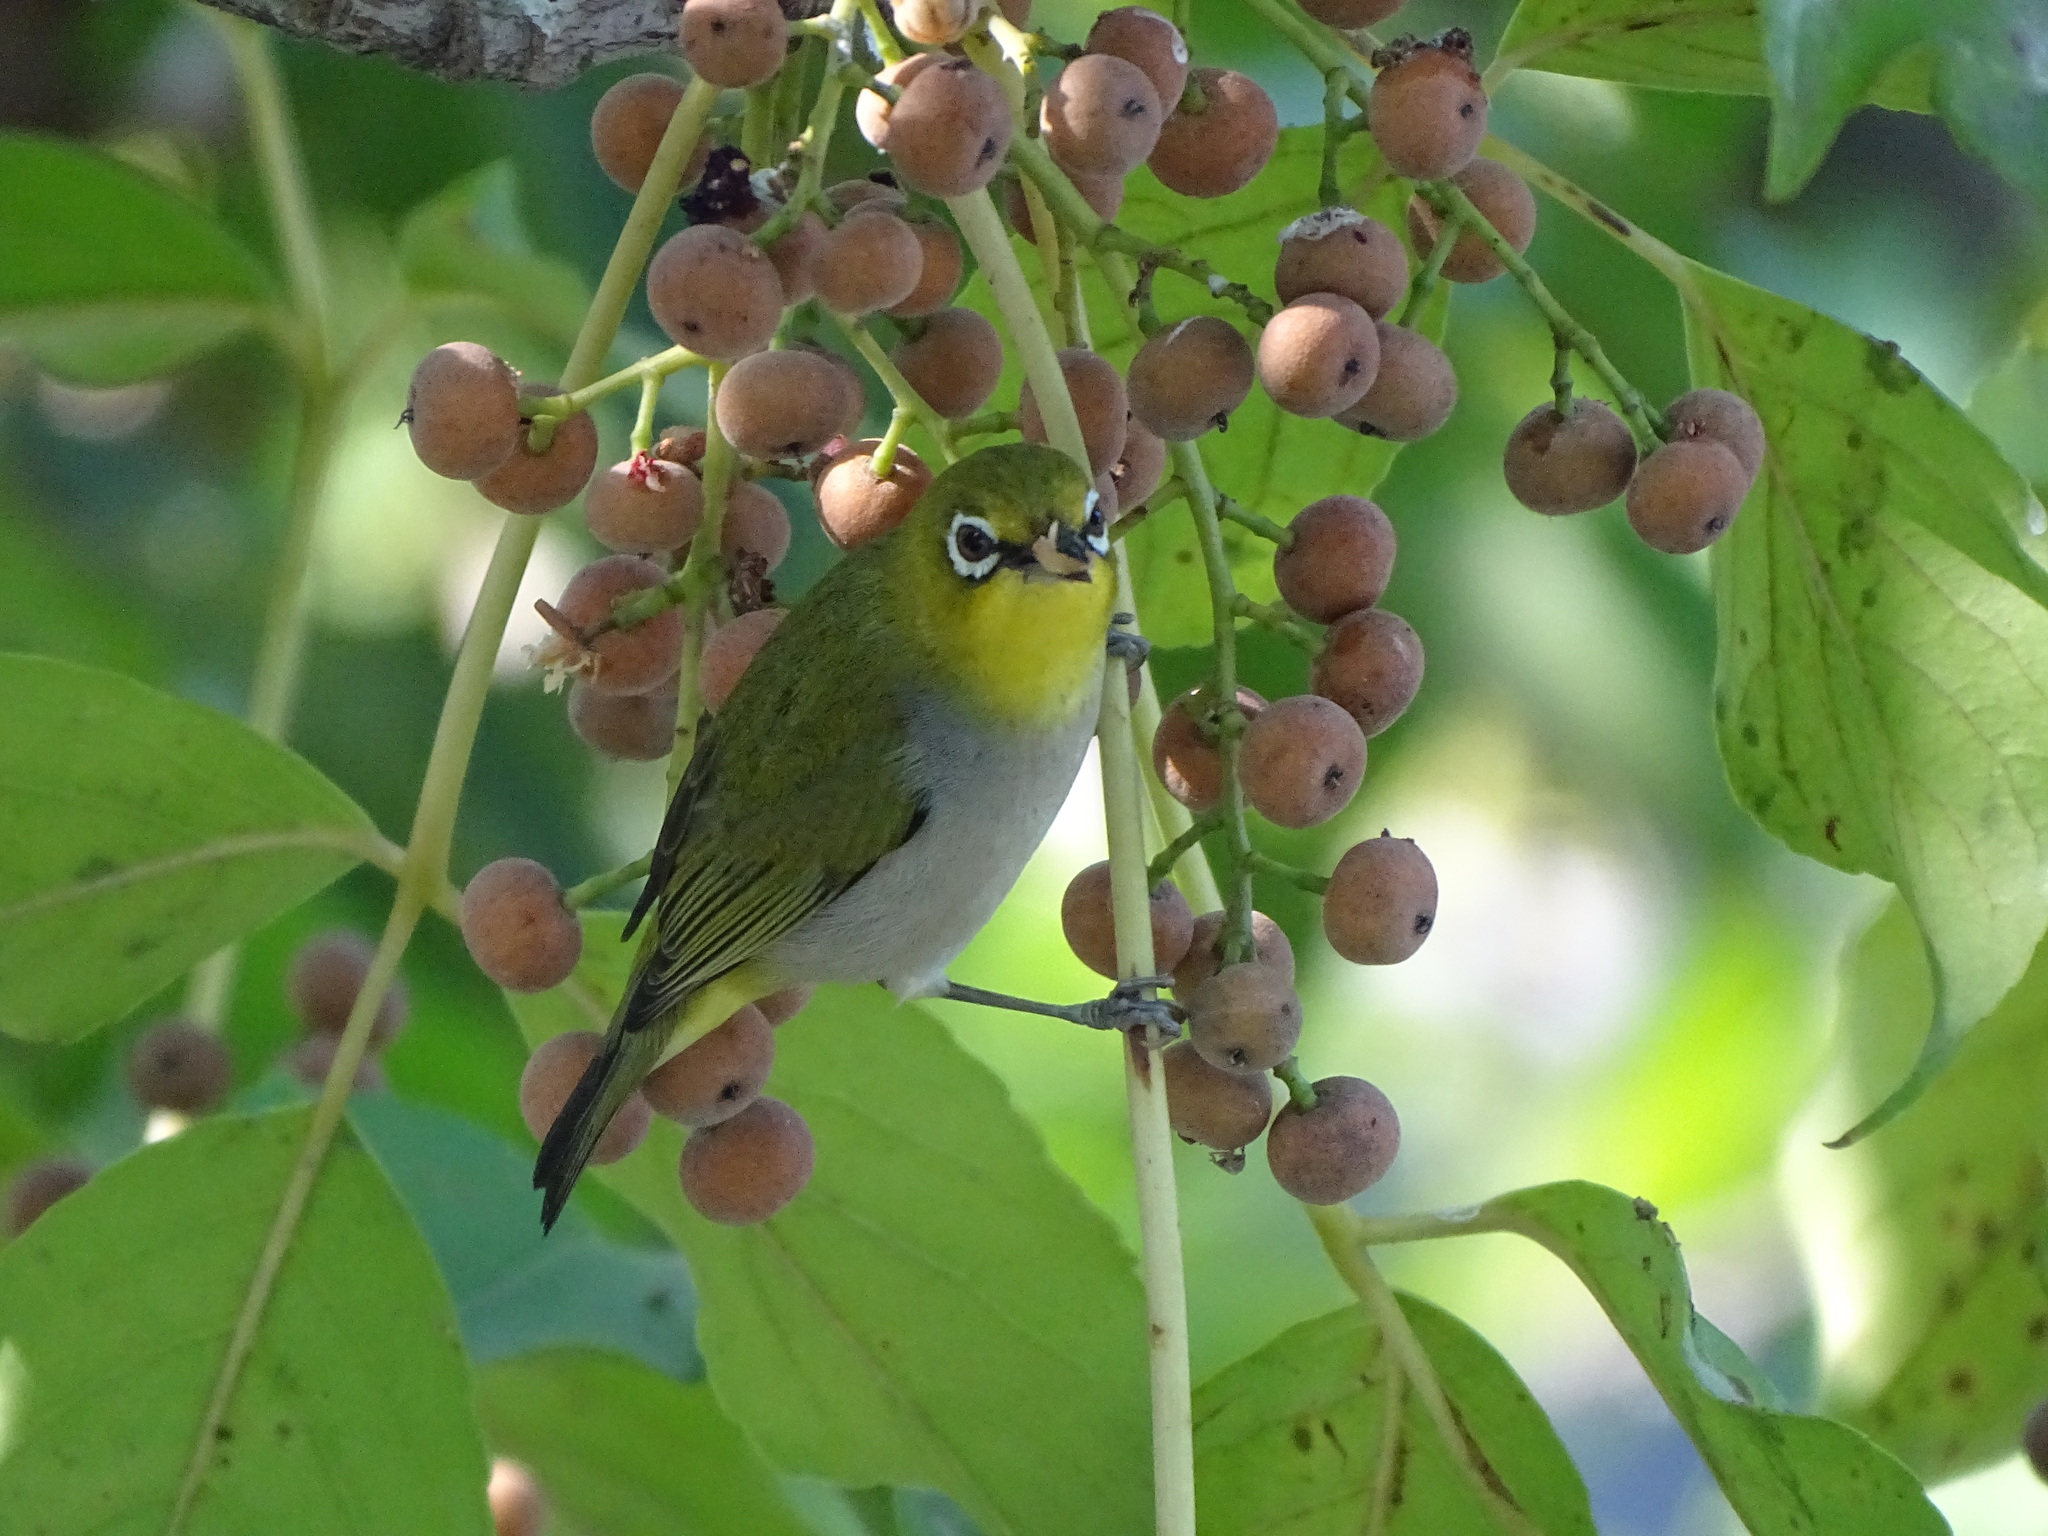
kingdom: Animalia
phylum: Chordata
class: Aves
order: Passeriformes
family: Zosteropidae
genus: Zosterops
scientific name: Zosterops simplex
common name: Swinhoe's white-eye
